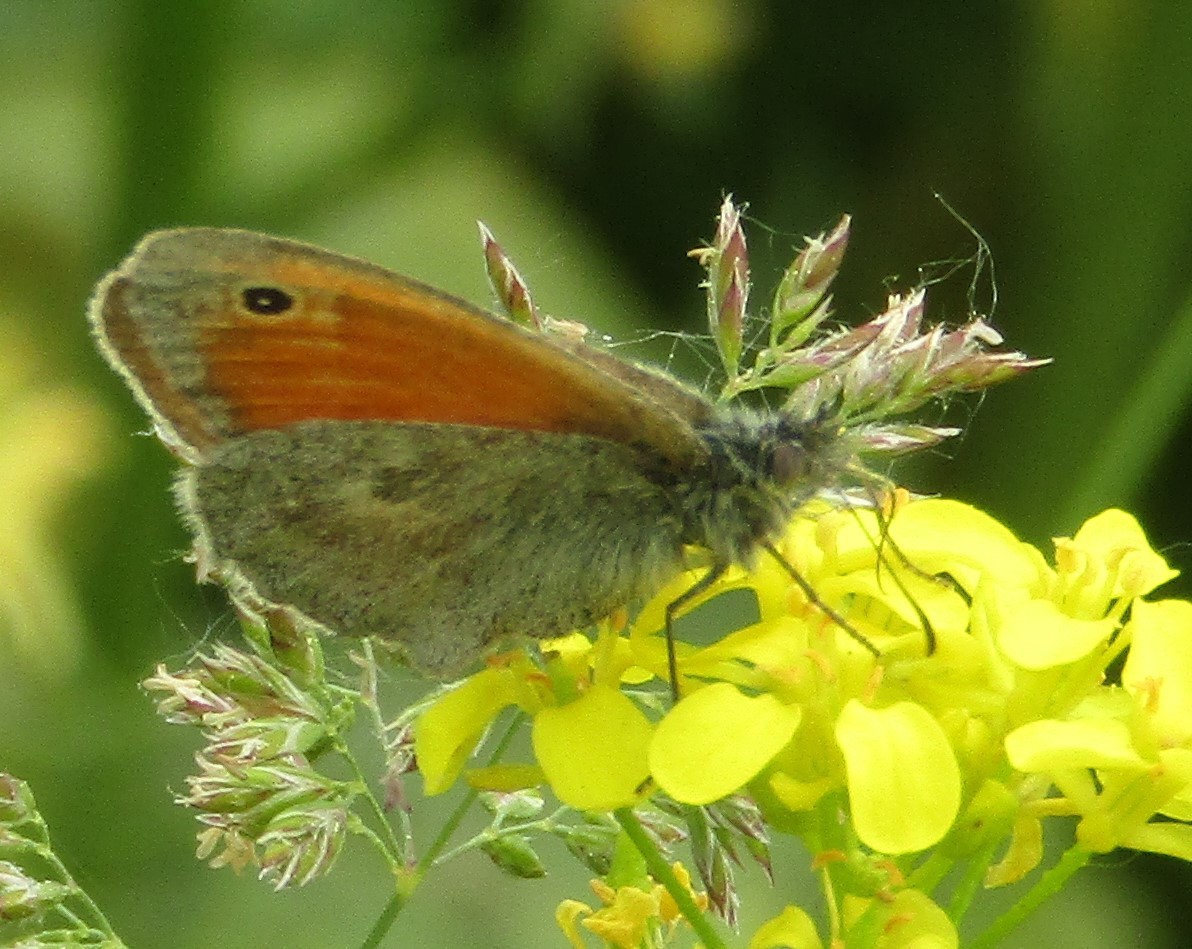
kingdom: Animalia
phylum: Arthropoda
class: Insecta
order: Lepidoptera
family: Nymphalidae
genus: Coenonympha
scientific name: Coenonympha pamphilus
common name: Small heath
